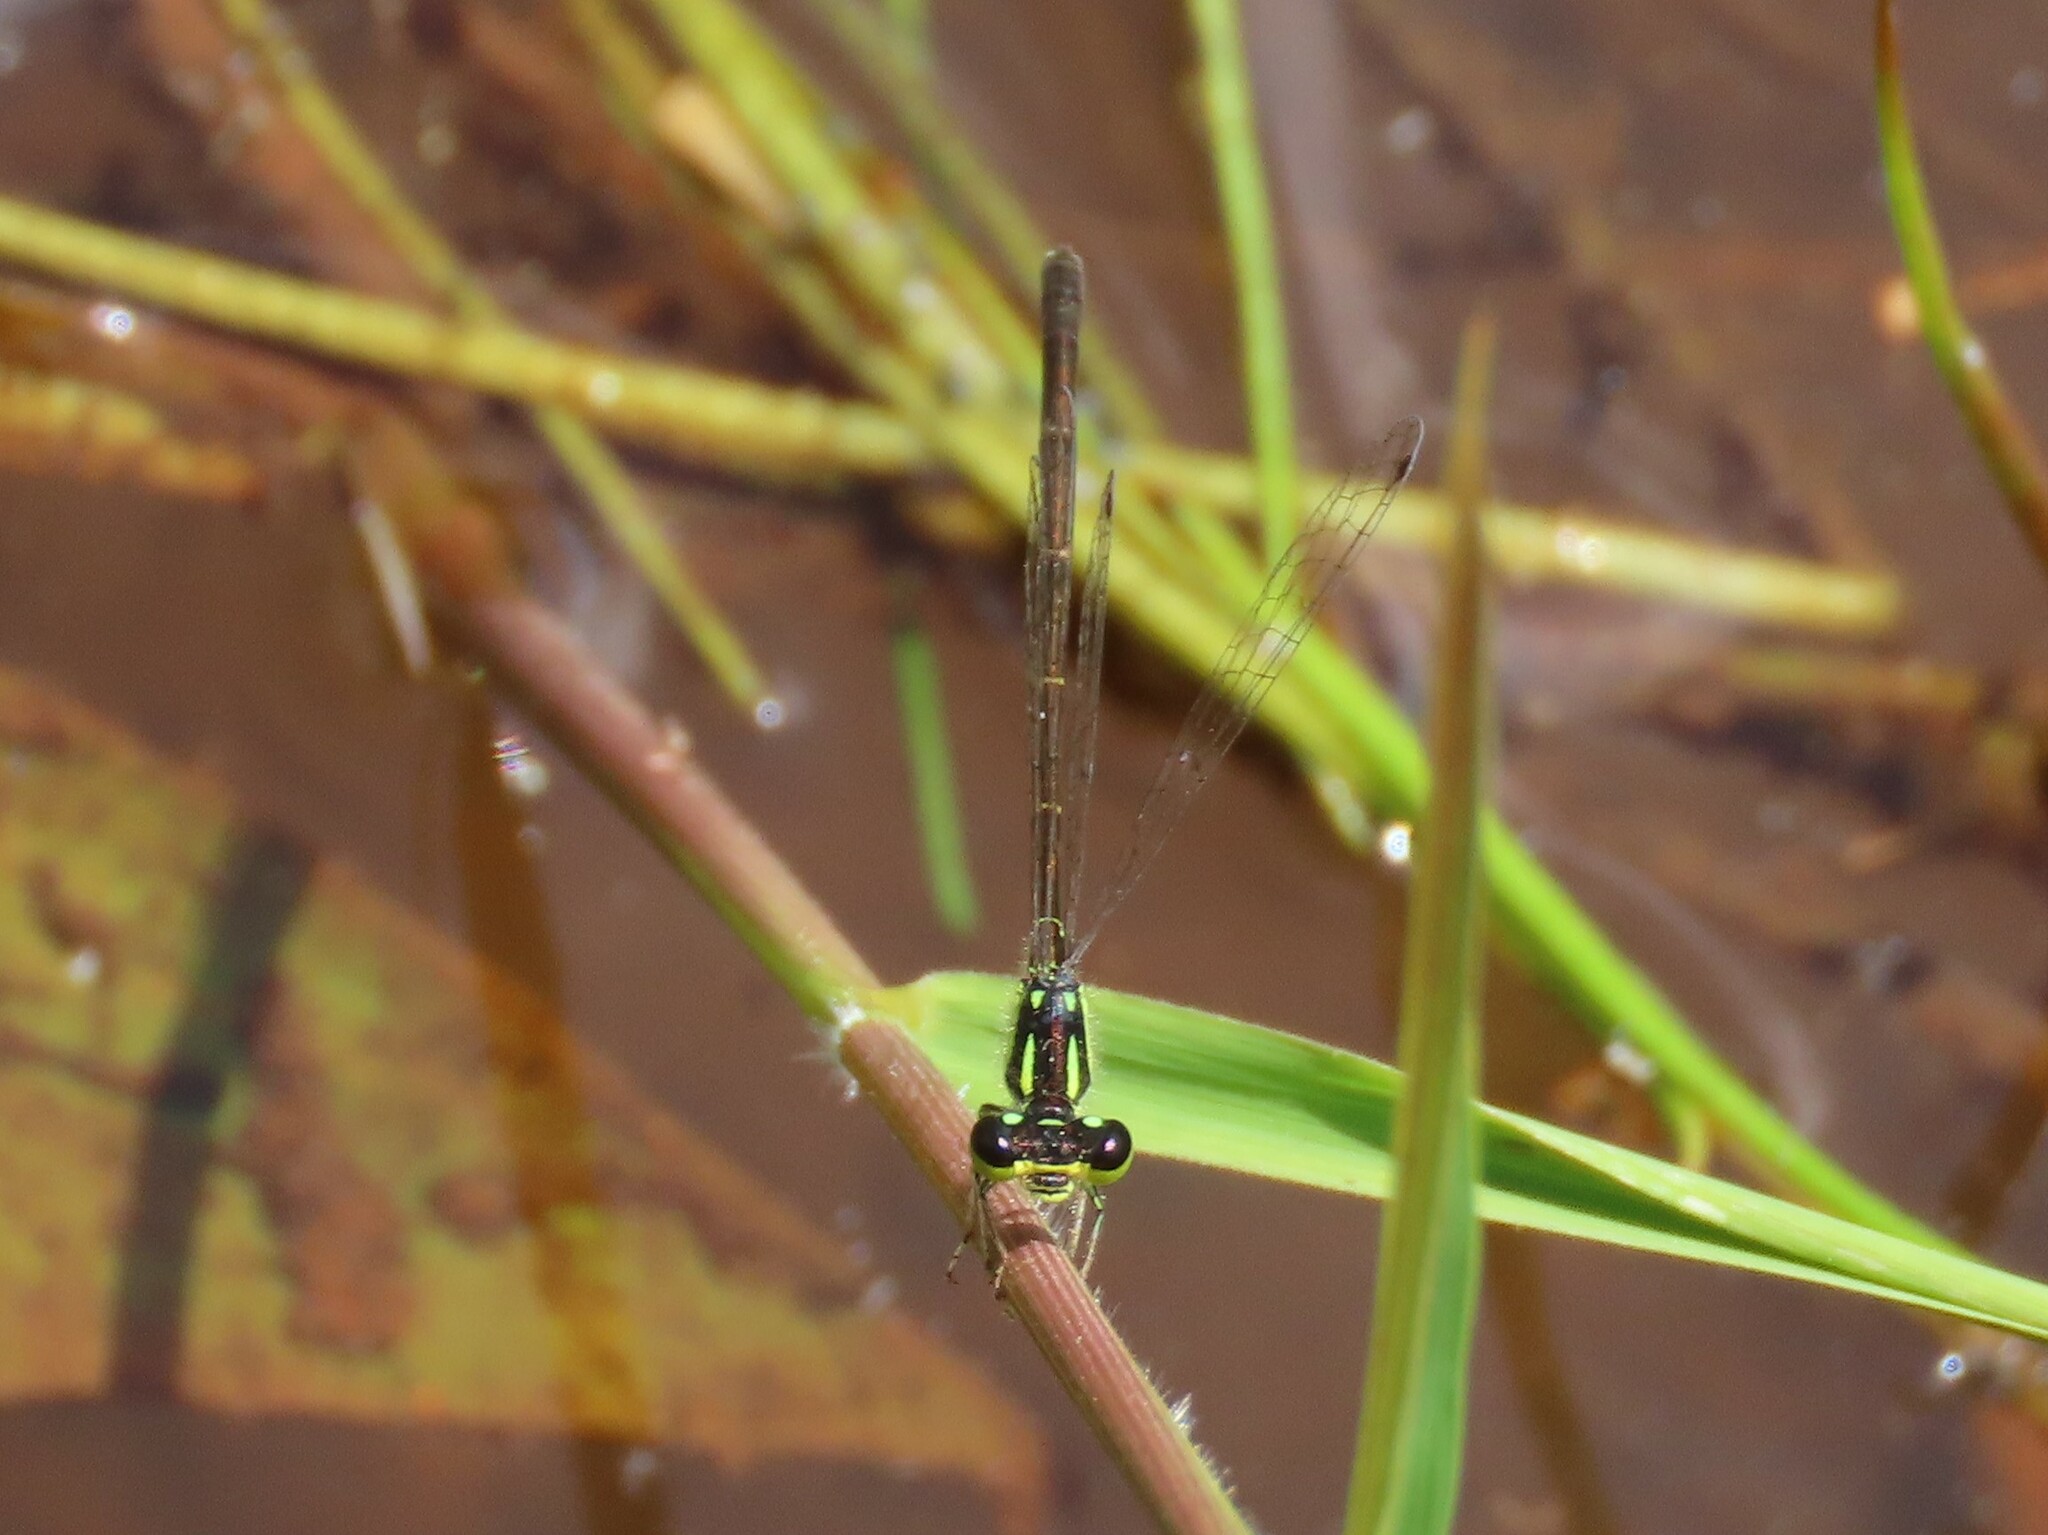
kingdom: Animalia
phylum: Arthropoda
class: Insecta
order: Odonata
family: Coenagrionidae
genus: Ischnura
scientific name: Ischnura posita
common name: Fragile forktail
